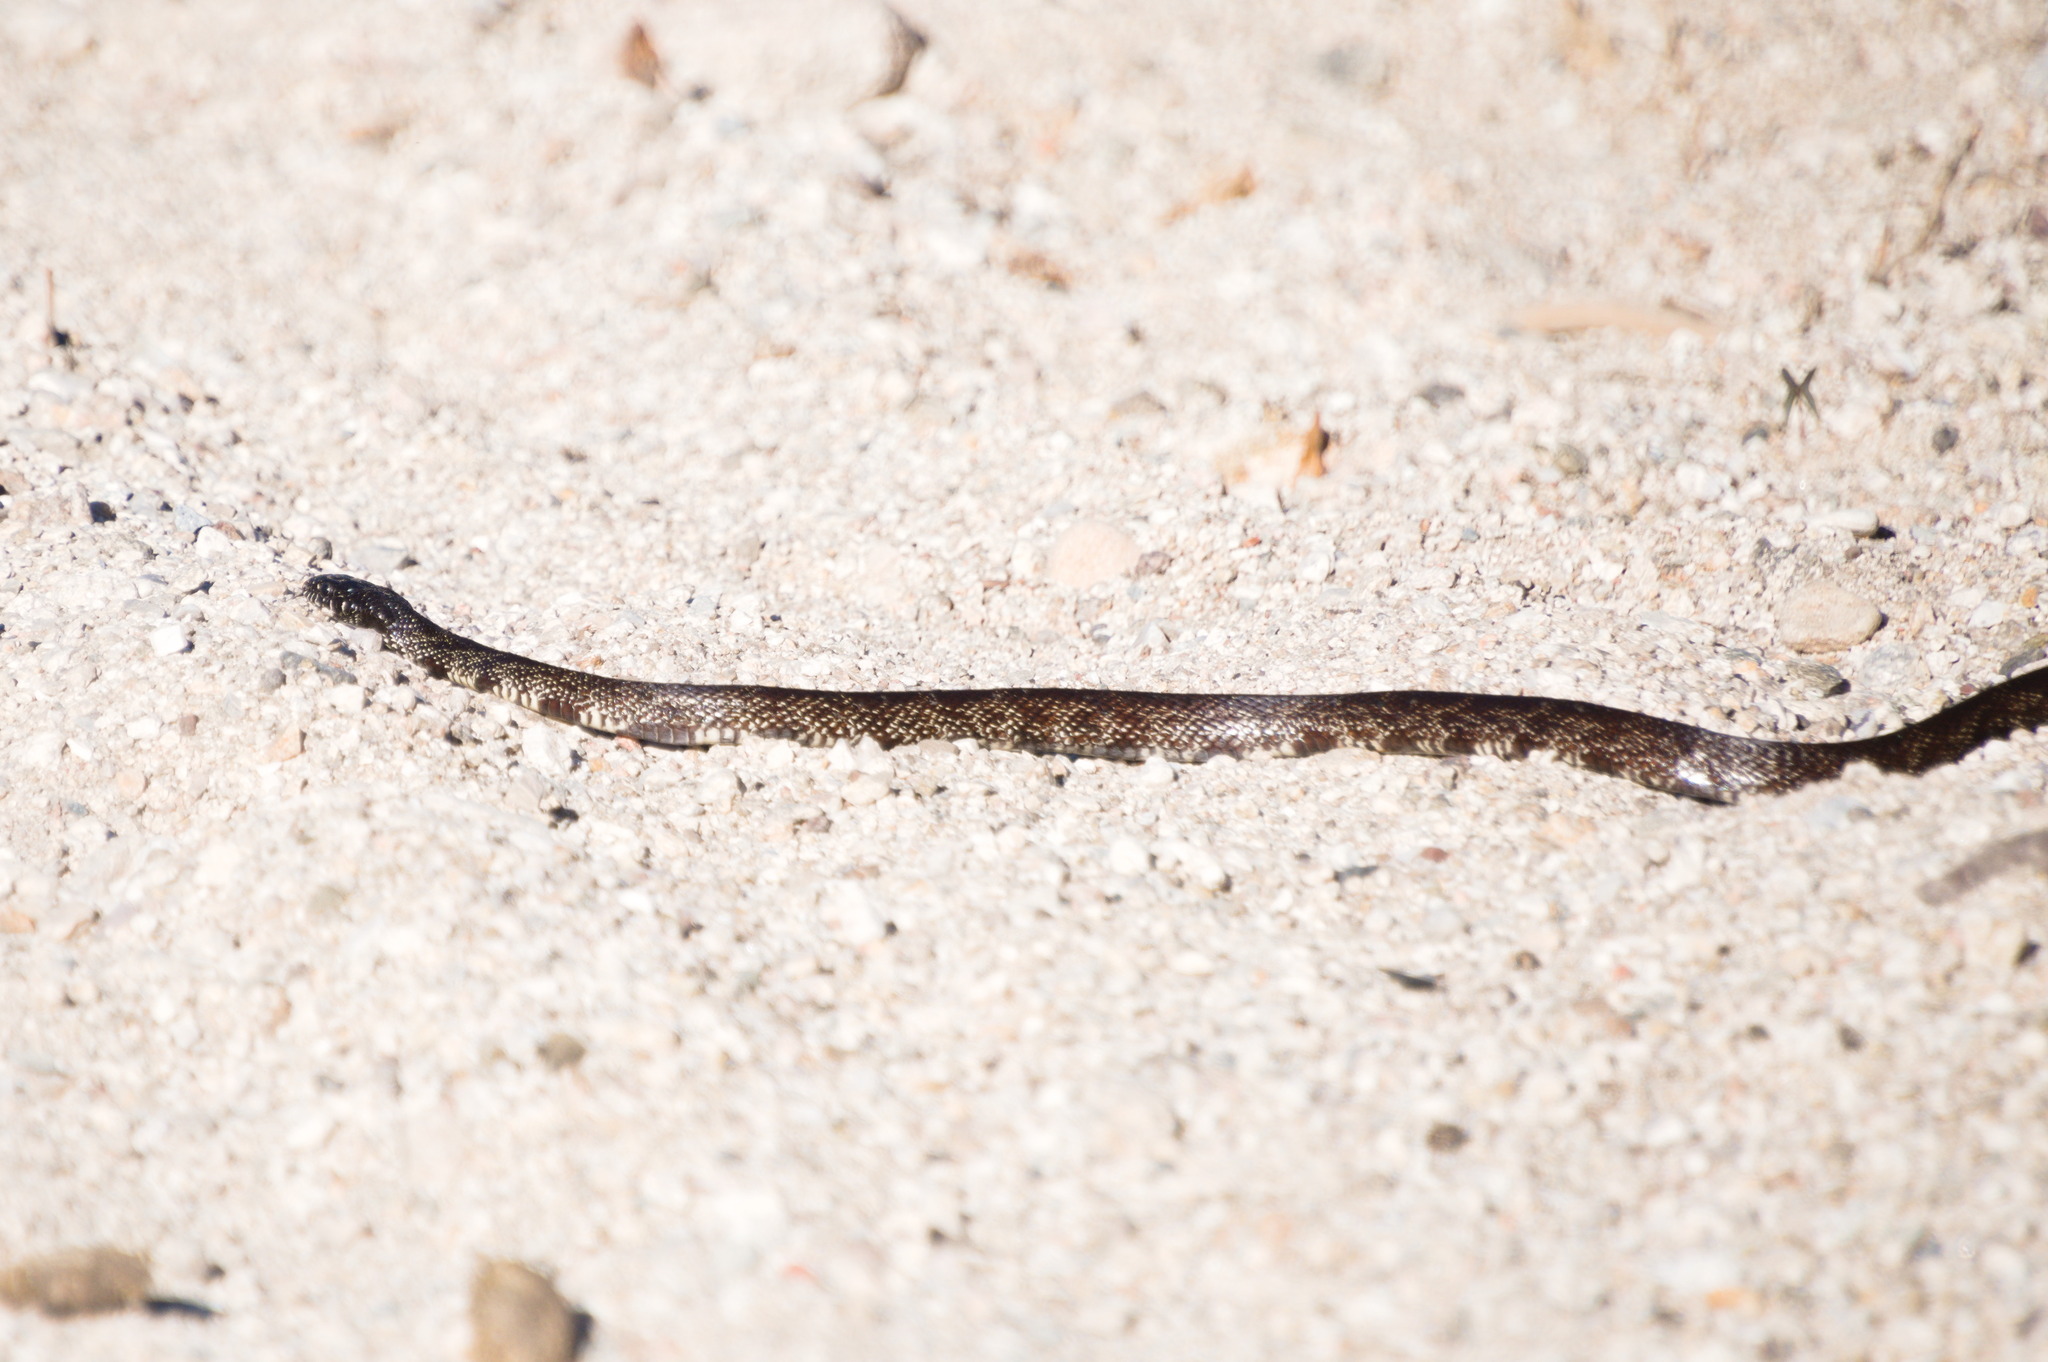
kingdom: Animalia
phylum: Chordata
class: Squamata
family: Colubridae
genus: Lampropeltis
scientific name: Lampropeltis splendida
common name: Desert kingsnake
